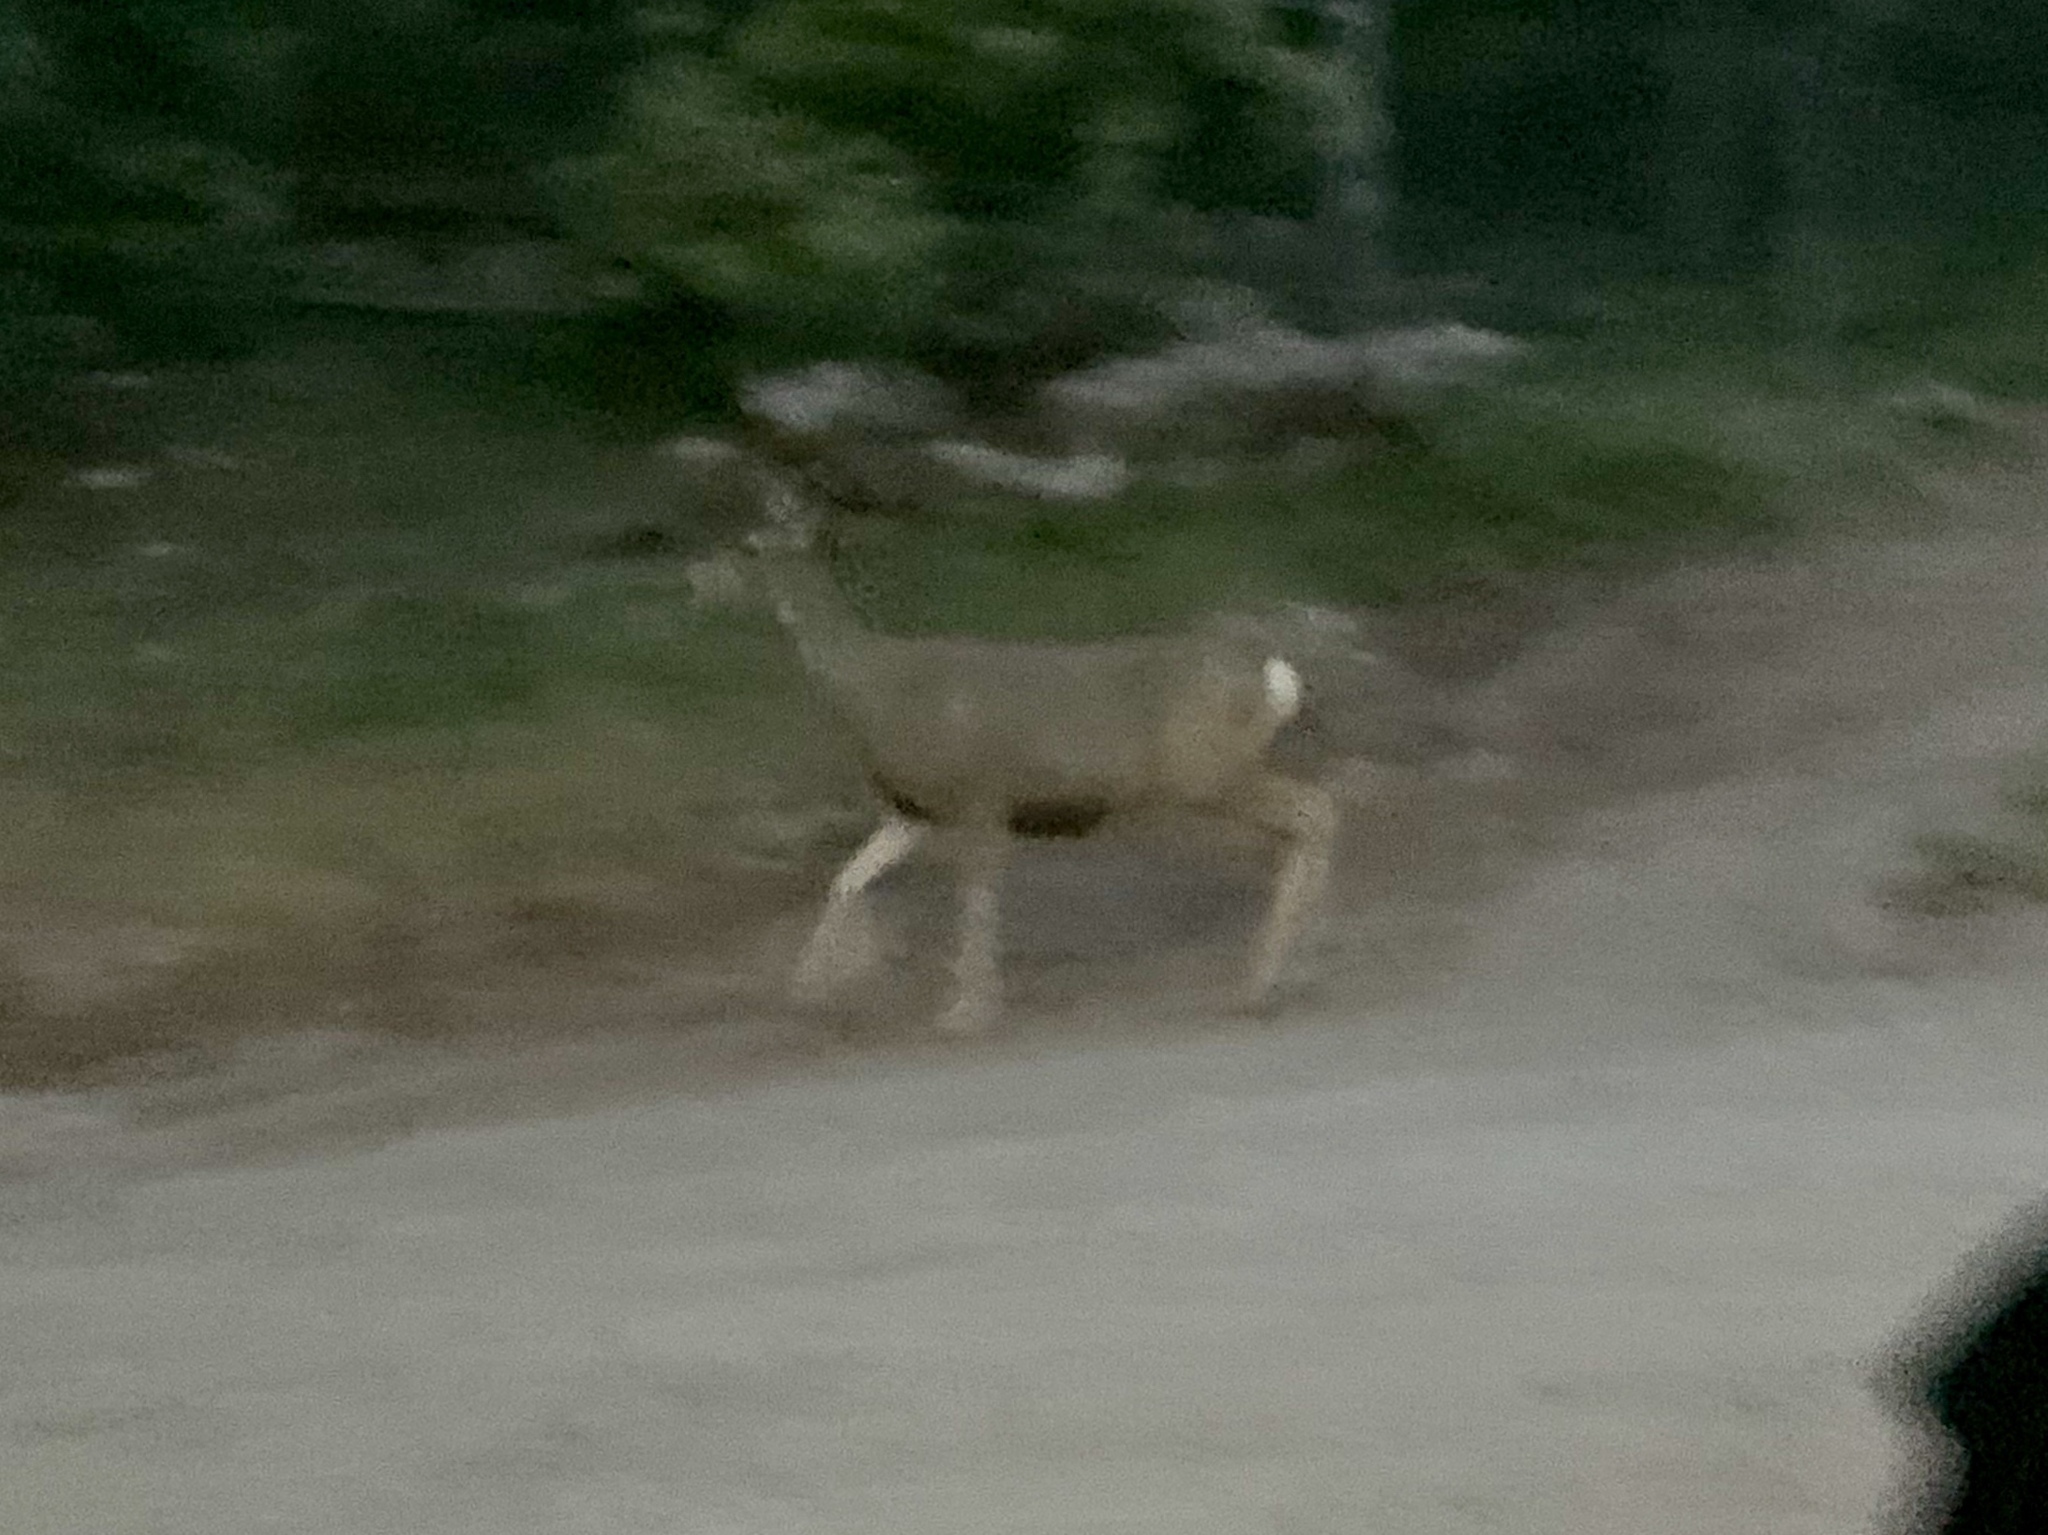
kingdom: Animalia
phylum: Chordata
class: Mammalia
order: Artiodactyla
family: Cervidae
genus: Odocoileus
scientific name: Odocoileus hemionus
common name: Mule deer
